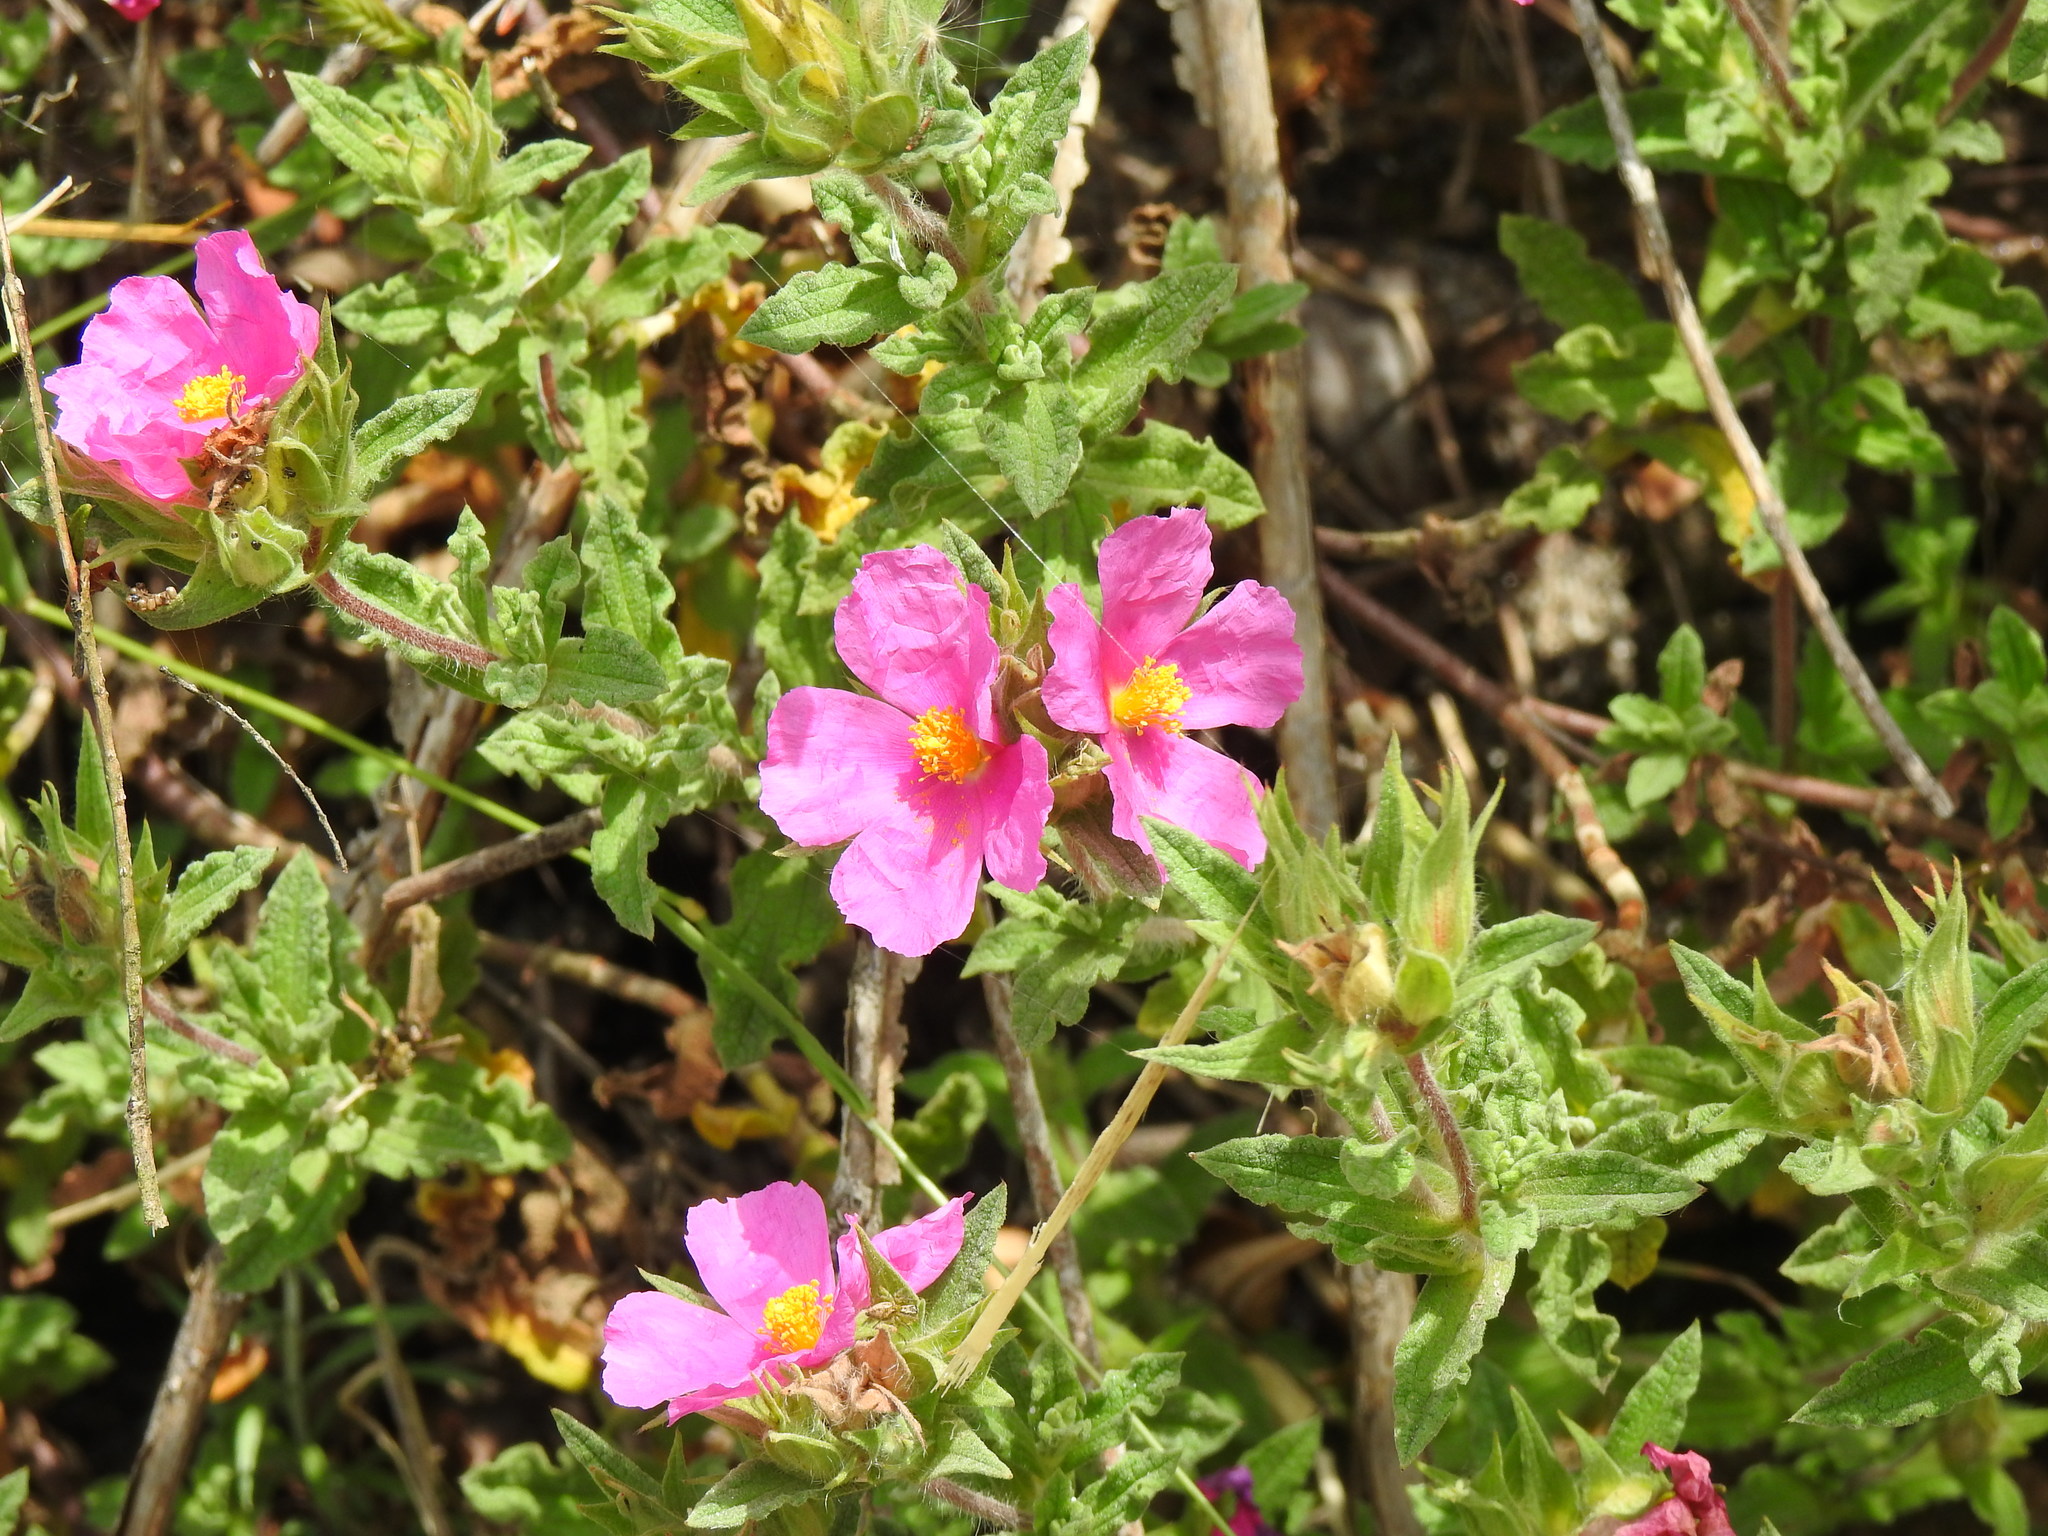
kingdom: Plantae
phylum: Tracheophyta
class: Magnoliopsida
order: Malvales
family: Cistaceae
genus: Cistus
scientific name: Cistus crispus
